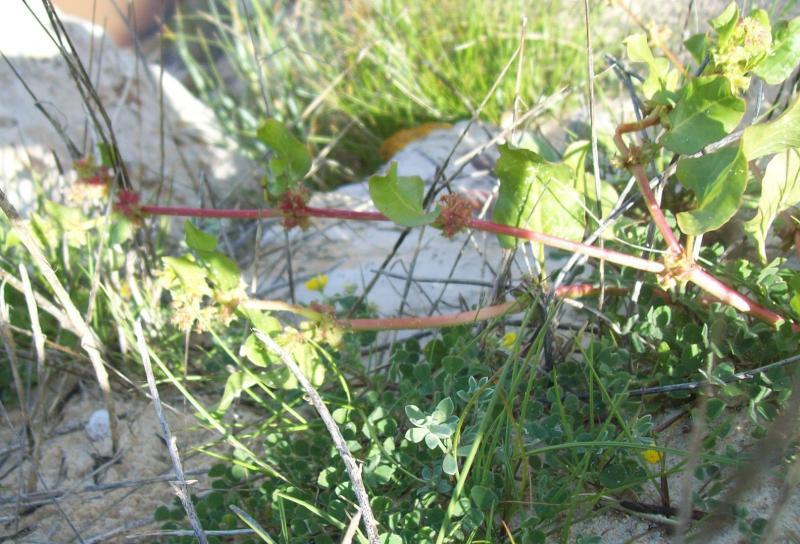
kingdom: Plantae
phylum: Tracheophyta
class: Magnoliopsida
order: Caryophyllales
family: Polygonaceae
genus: Rumex
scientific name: Rumex spinosus
